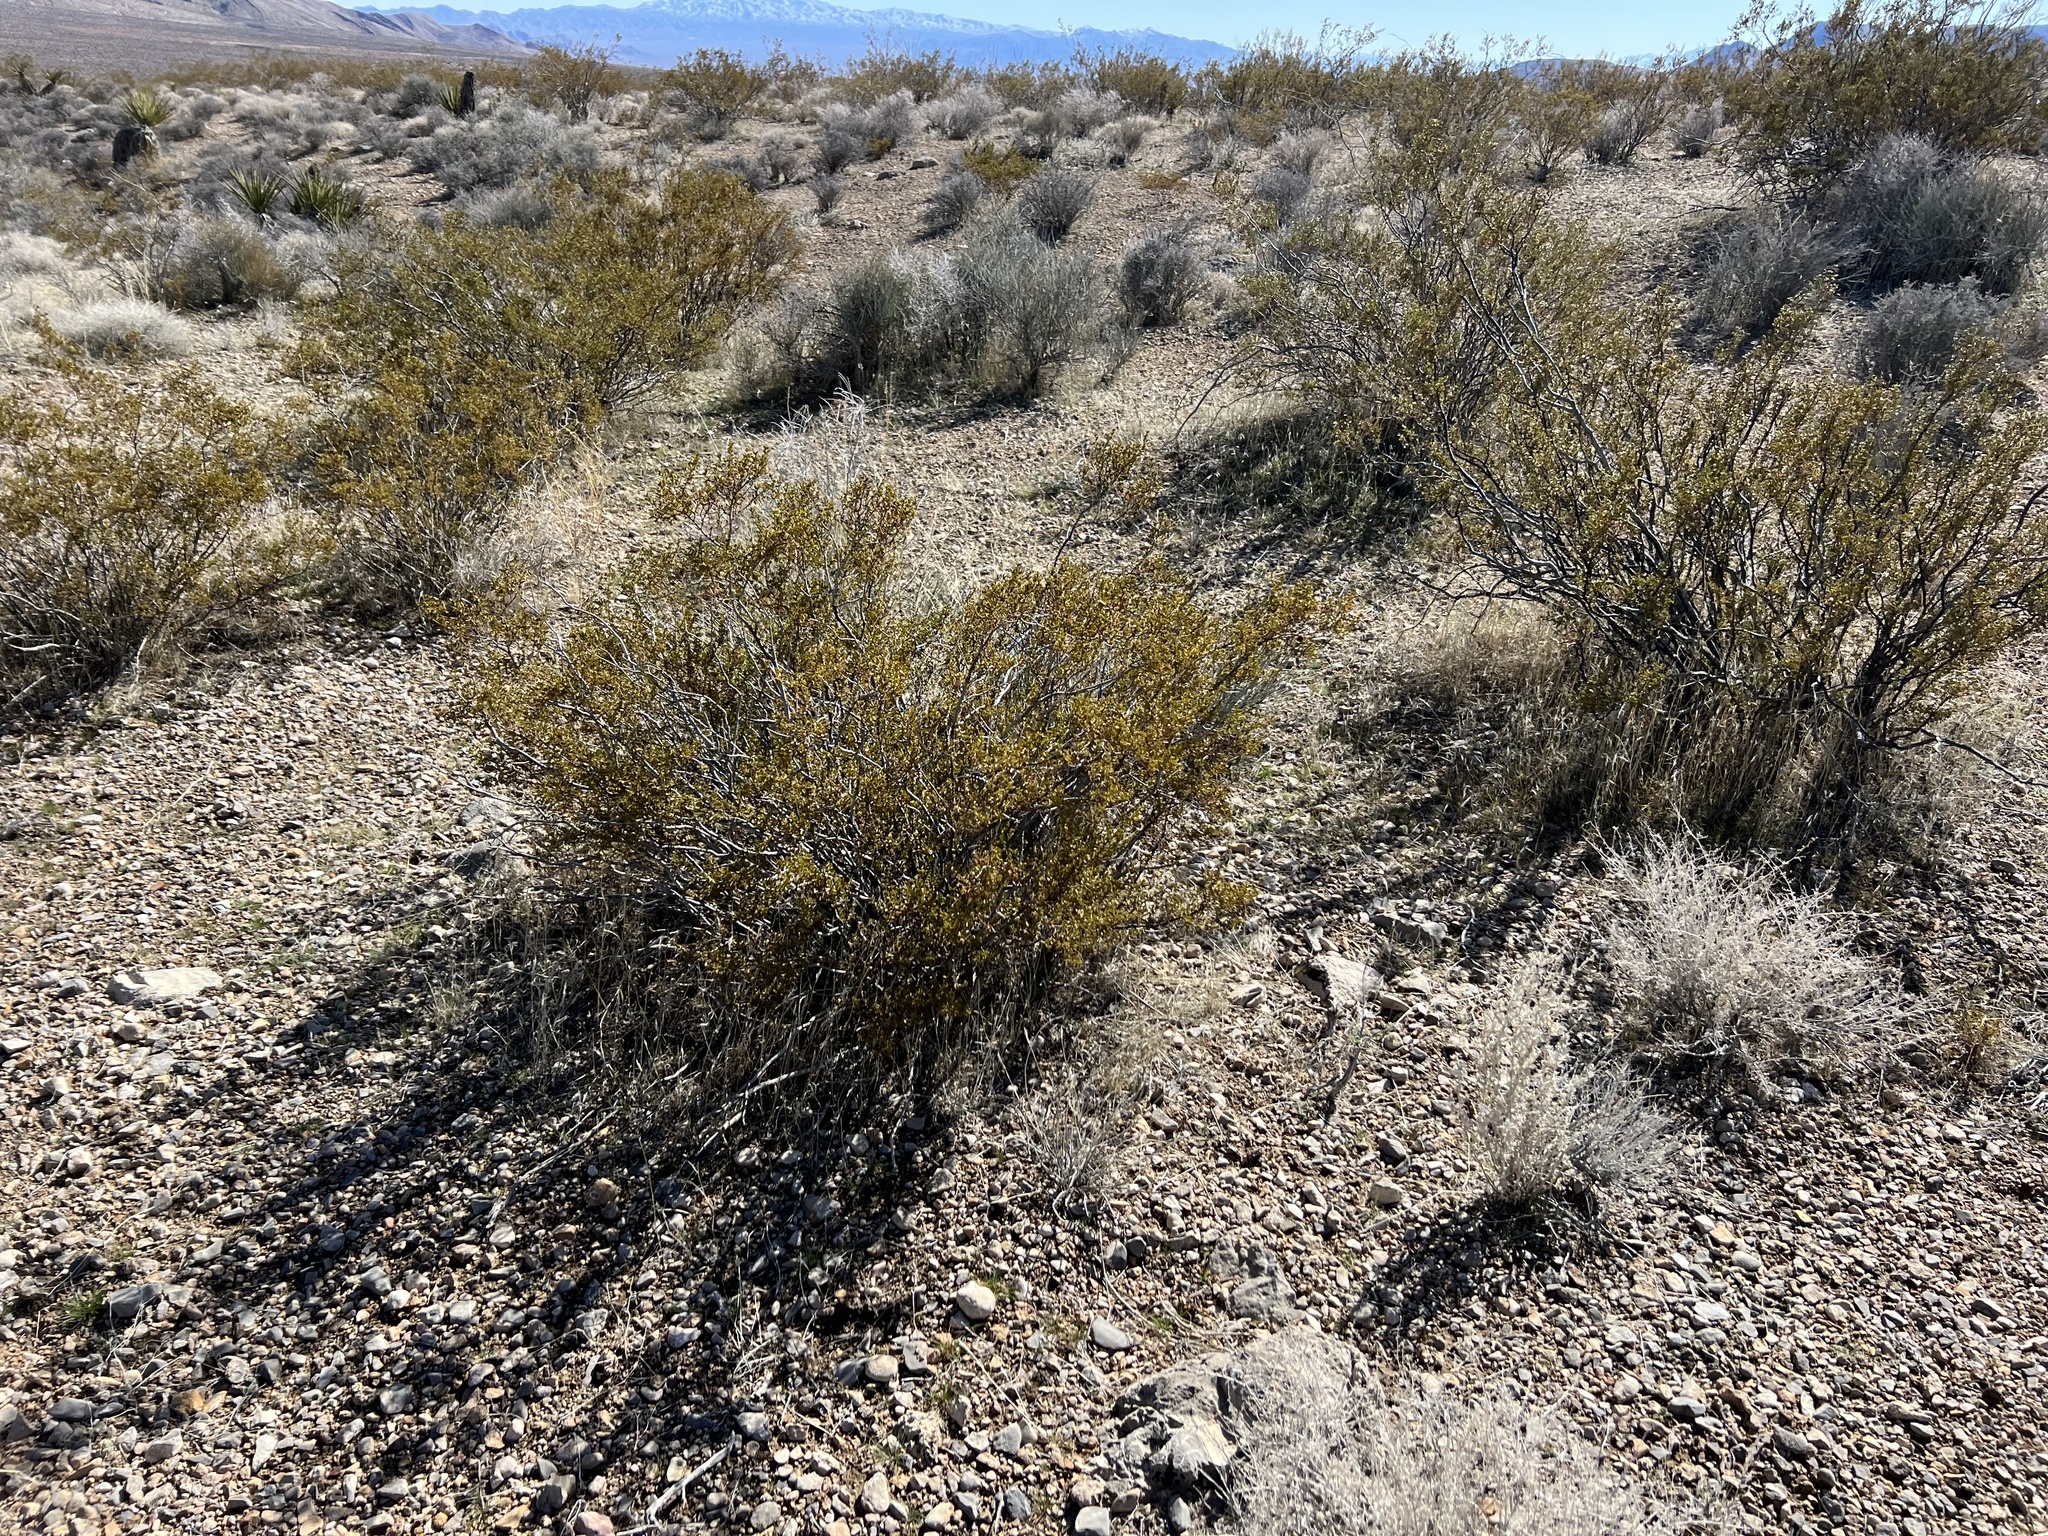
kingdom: Plantae
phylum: Tracheophyta
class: Magnoliopsida
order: Zygophyllales
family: Zygophyllaceae
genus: Larrea
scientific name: Larrea tridentata
